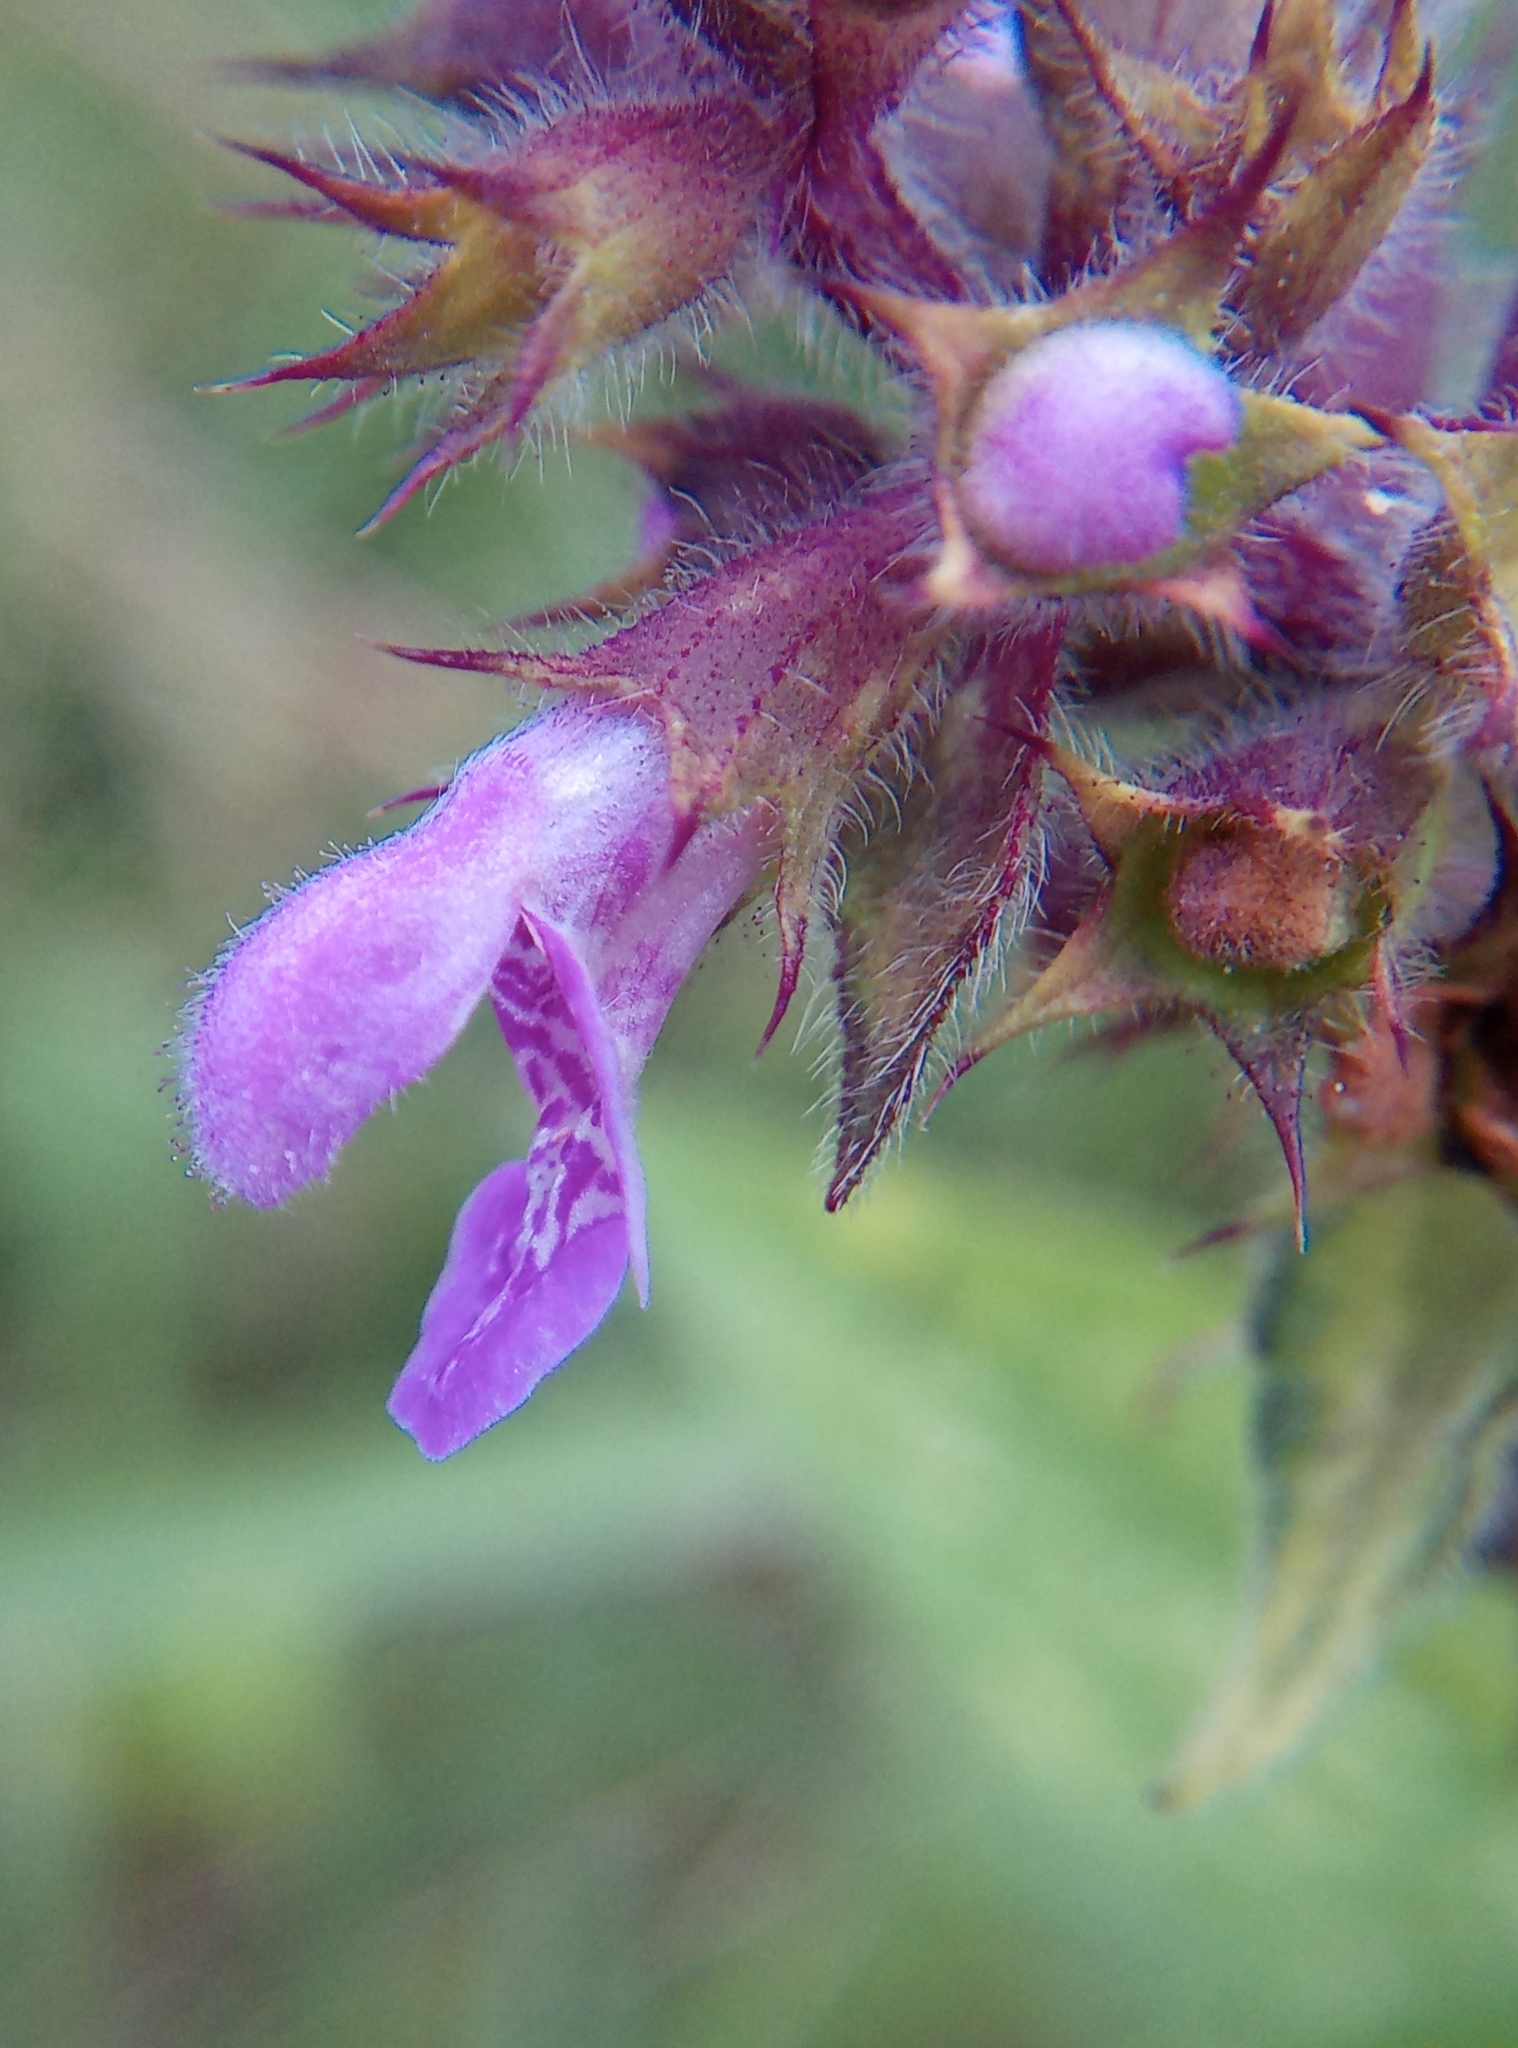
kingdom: Plantae
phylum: Tracheophyta
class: Magnoliopsida
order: Lamiales
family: Lamiaceae
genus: Stachys
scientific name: Stachys palustris
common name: Marsh woundwort
